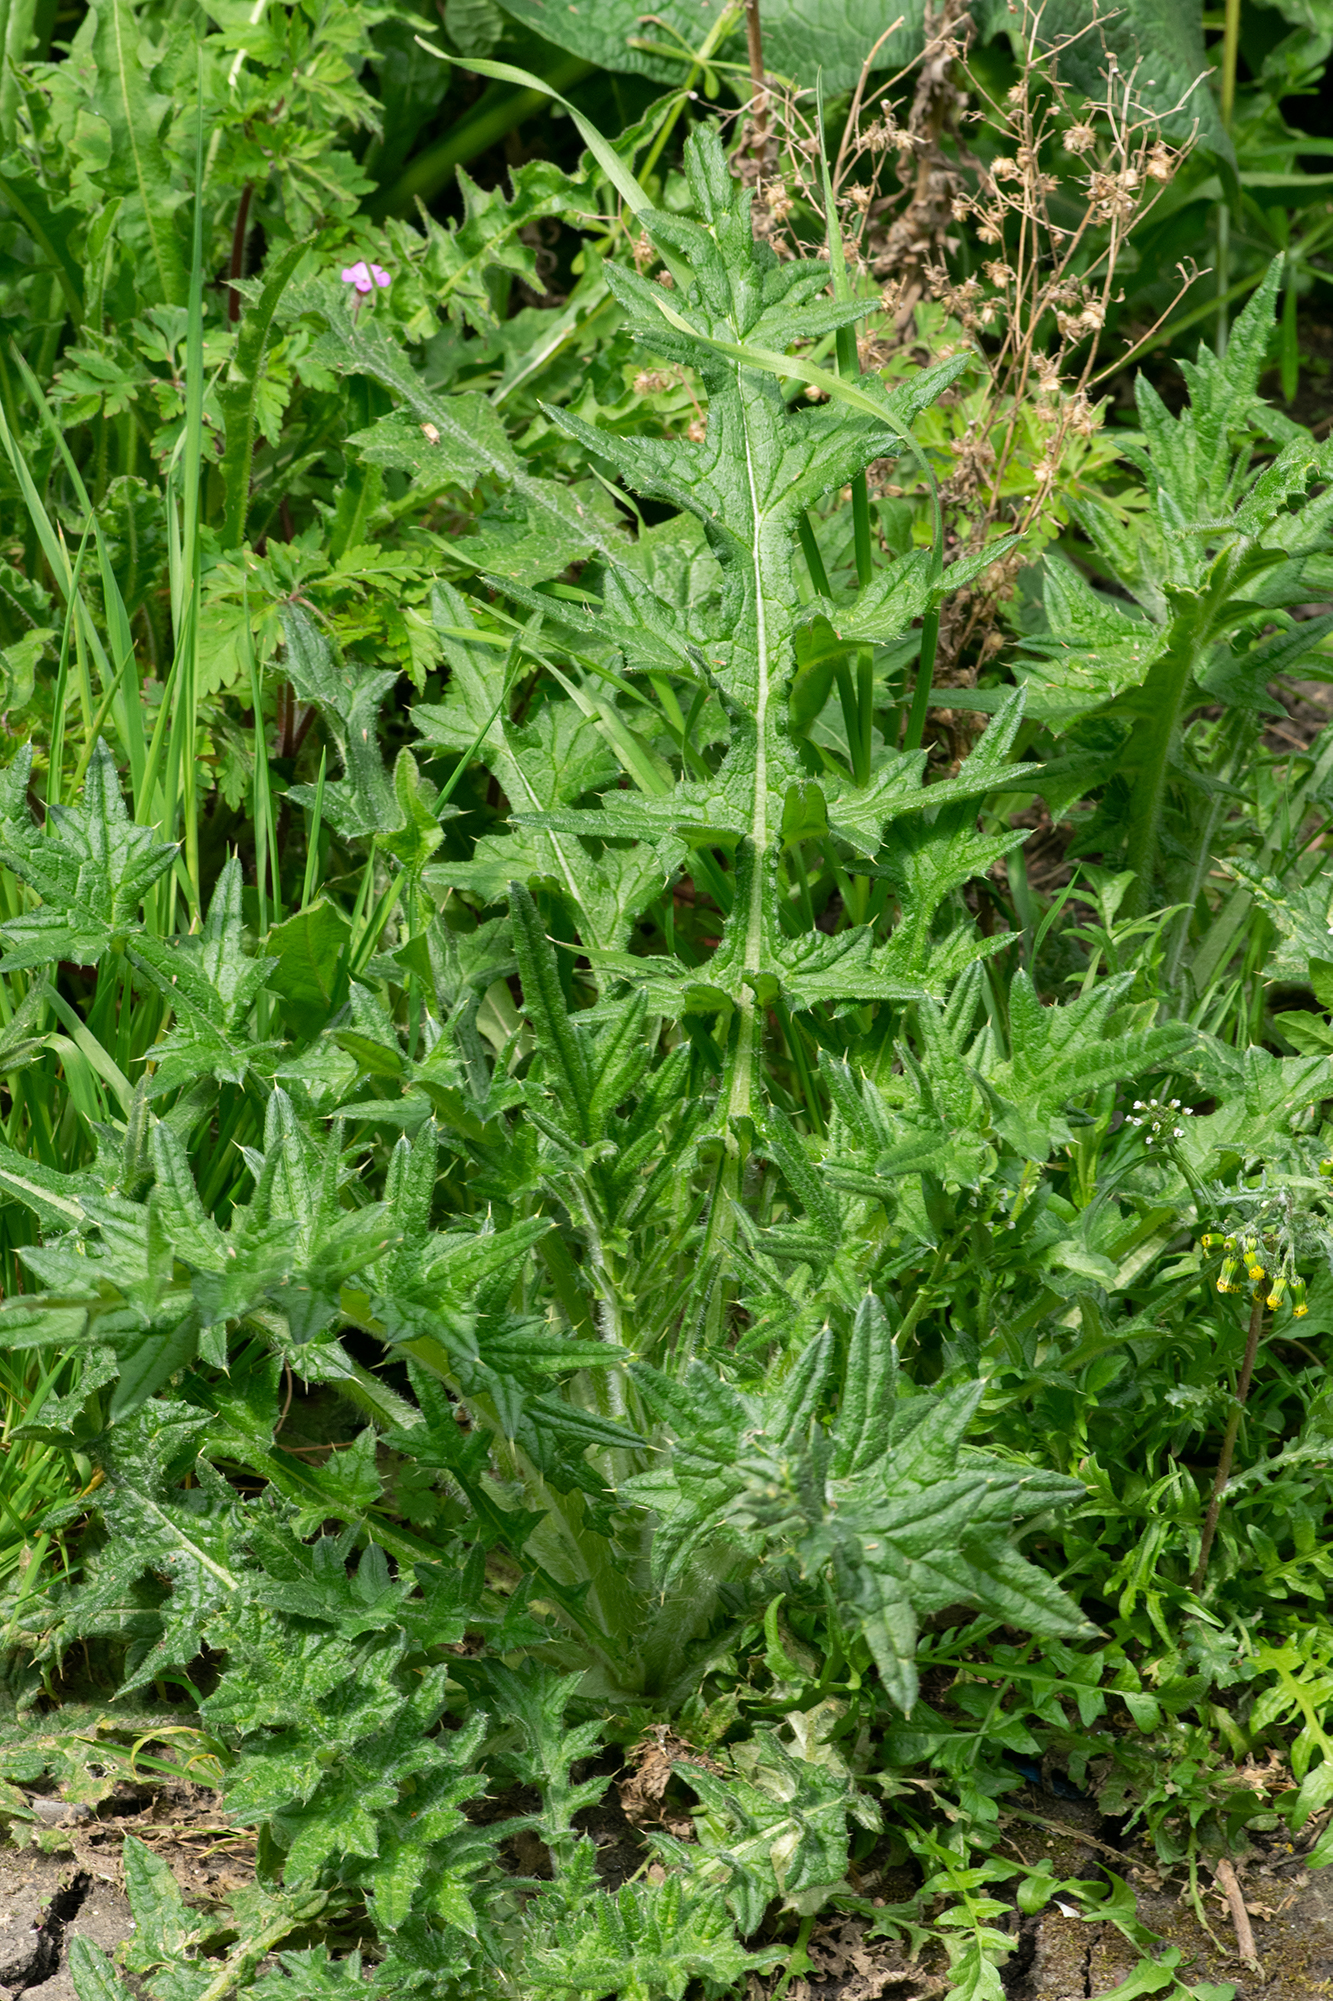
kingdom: Plantae
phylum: Tracheophyta
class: Magnoliopsida
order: Asterales
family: Asteraceae
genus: Cirsium
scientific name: Cirsium vulgare
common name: Bull thistle
